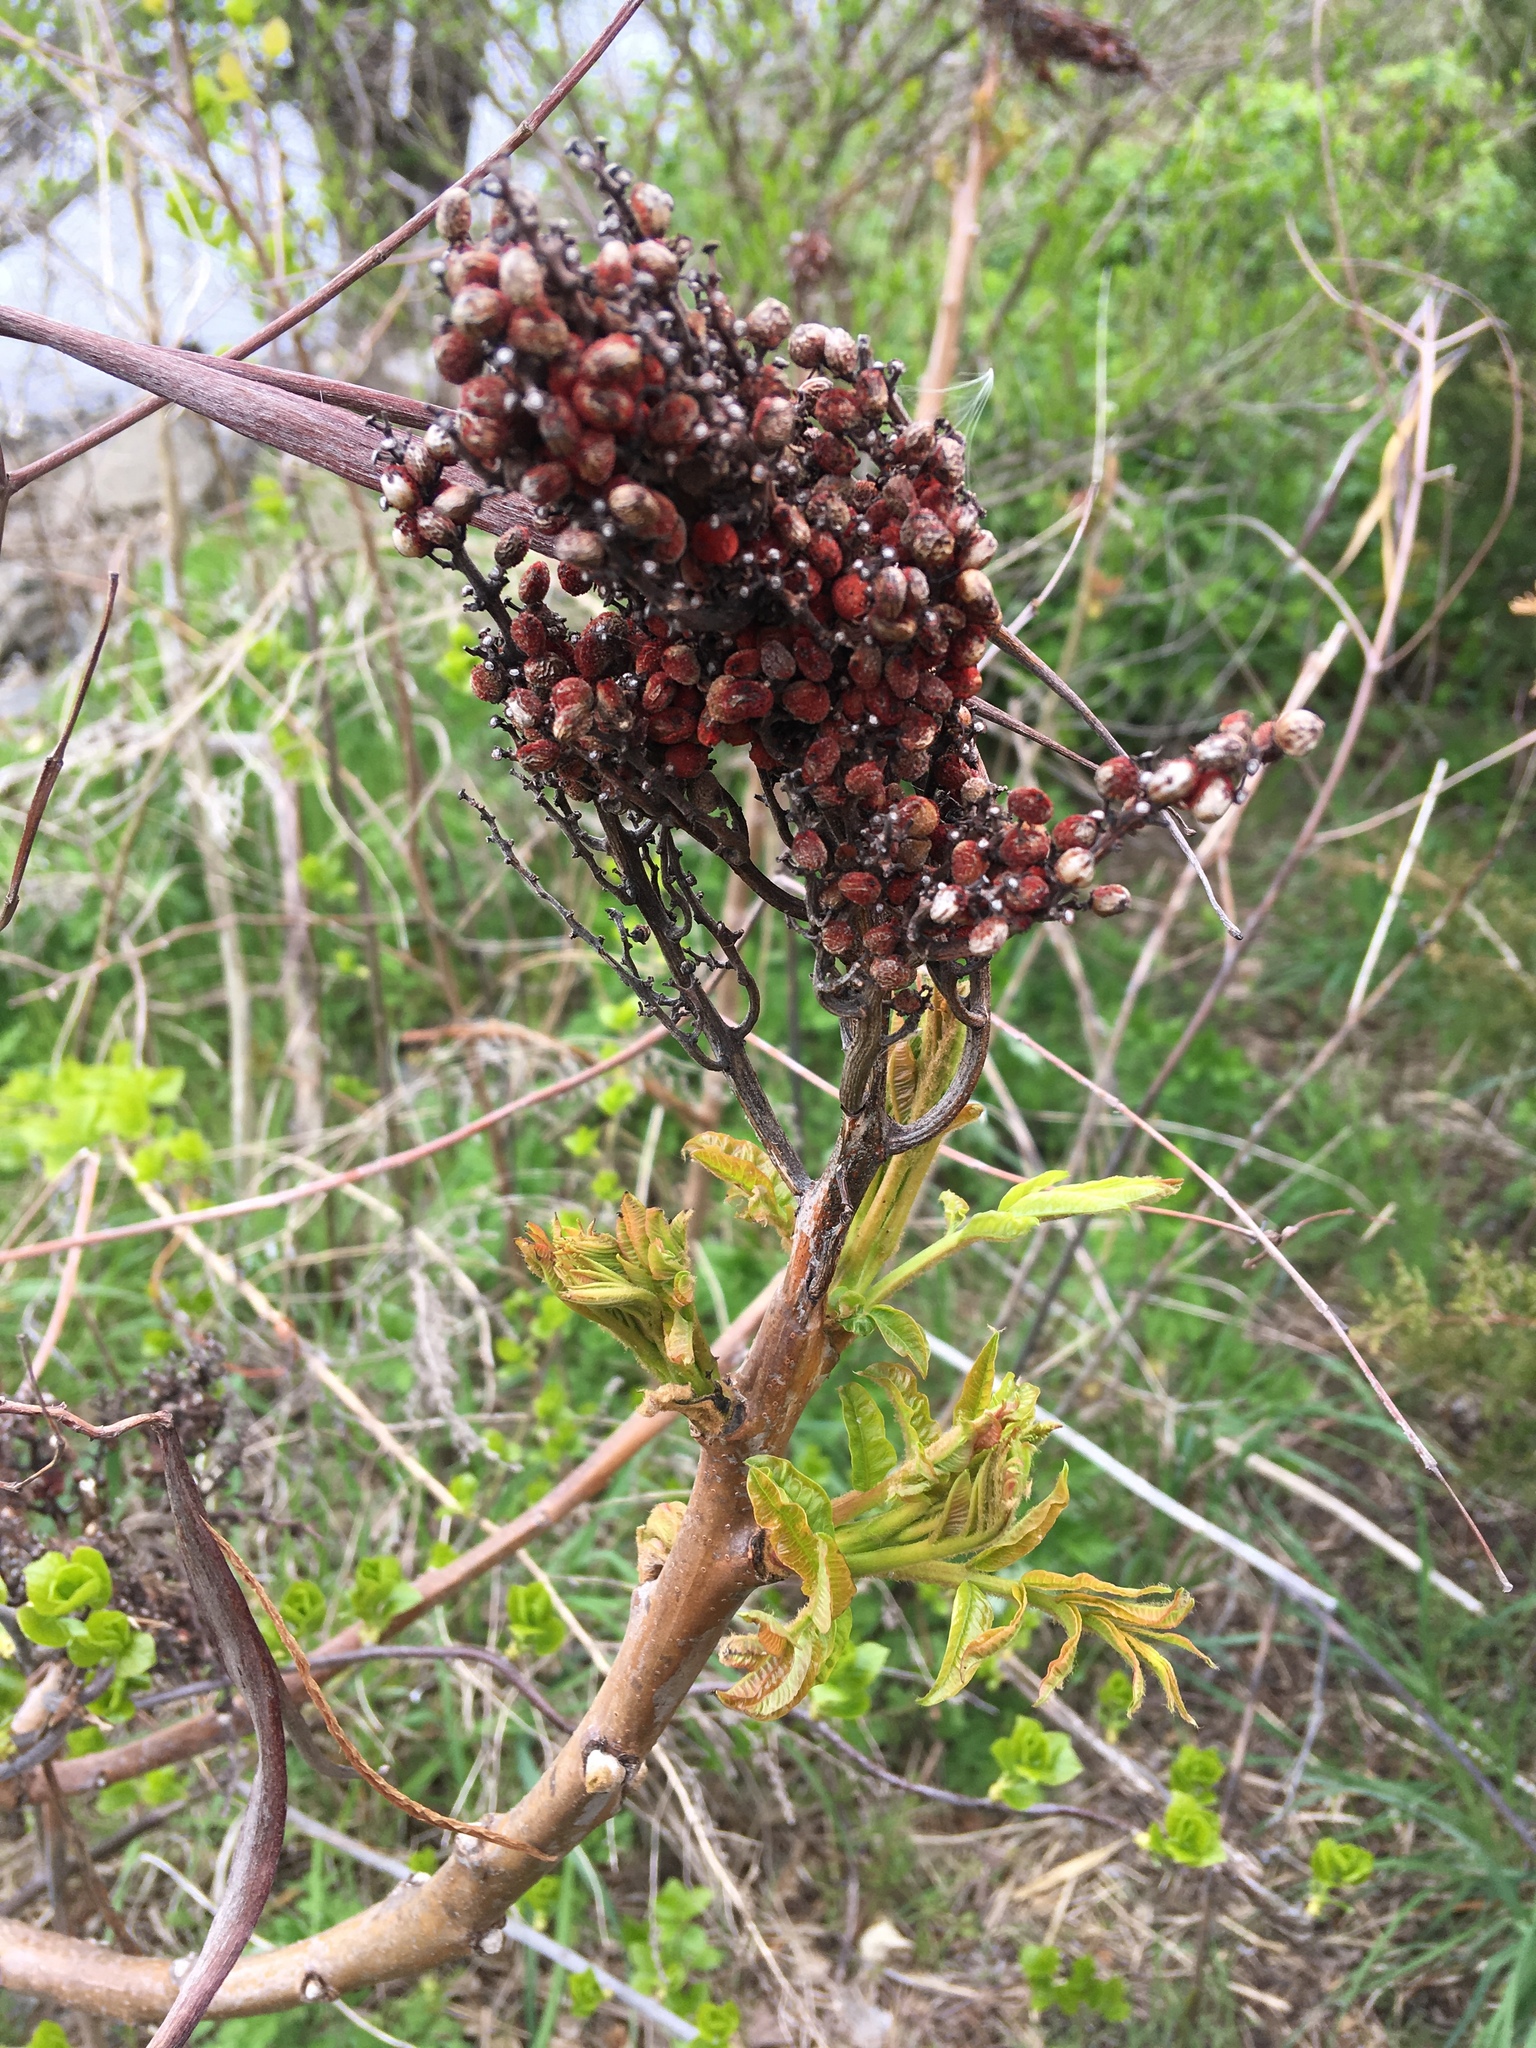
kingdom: Plantae
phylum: Tracheophyta
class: Magnoliopsida
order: Sapindales
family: Anacardiaceae
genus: Rhus
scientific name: Rhus copallina
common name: Shining sumac
